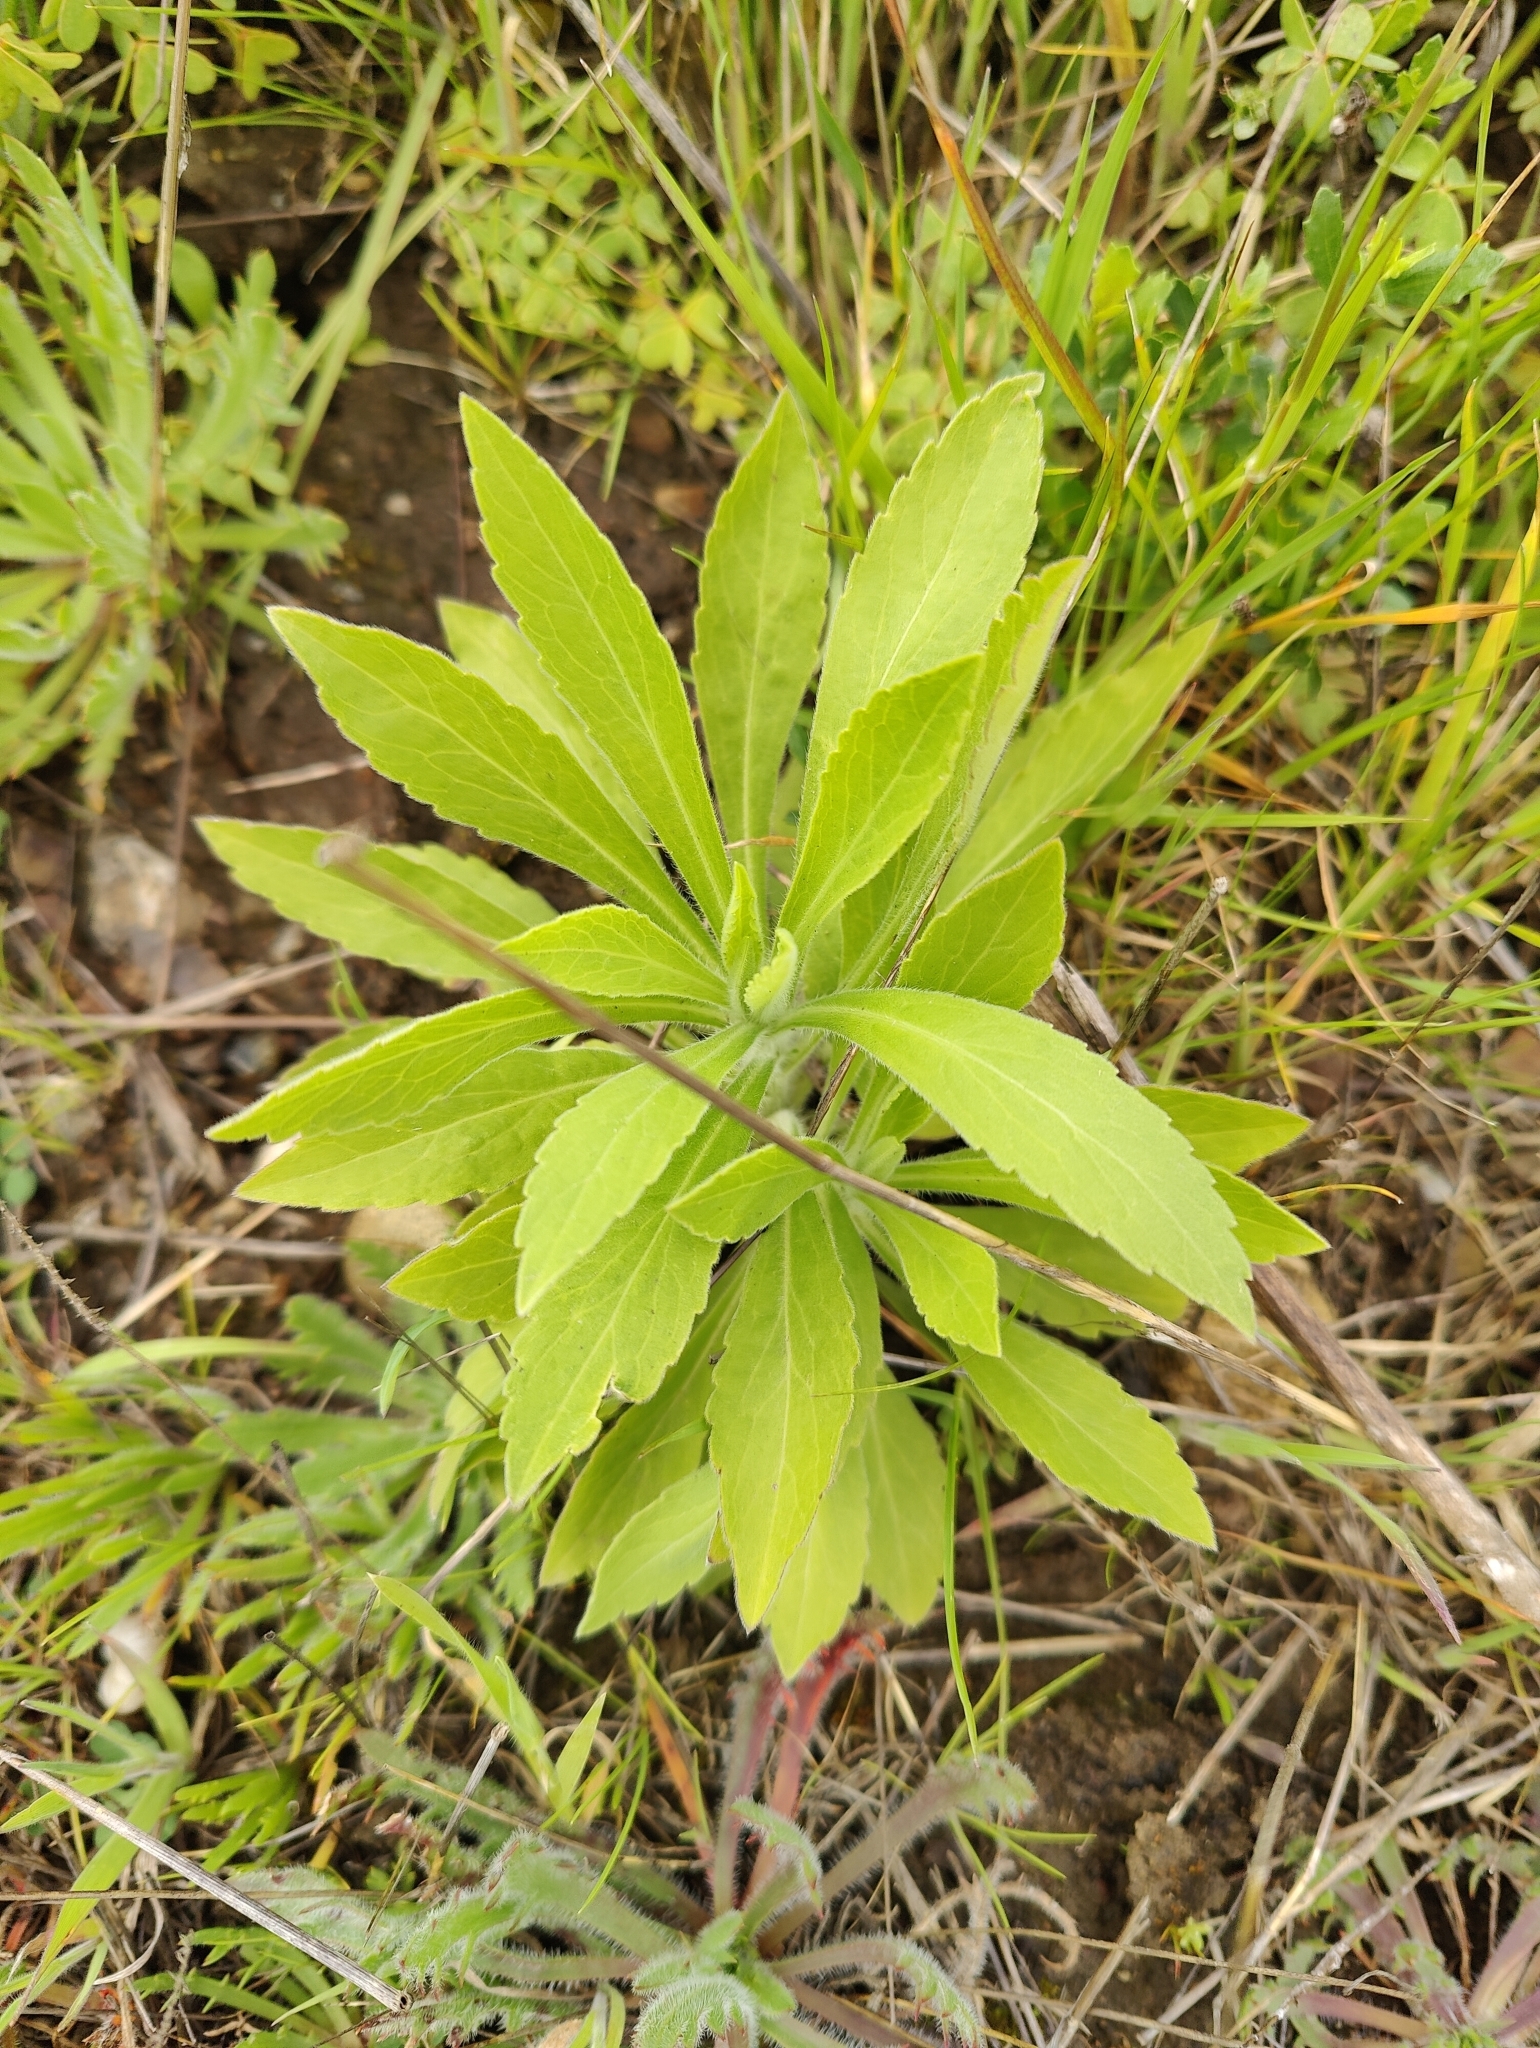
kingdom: Plantae
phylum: Tracheophyta
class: Magnoliopsida
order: Asterales
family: Asteraceae
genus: Erigeron
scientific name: Erigeron sumatrensis
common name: Daisy
